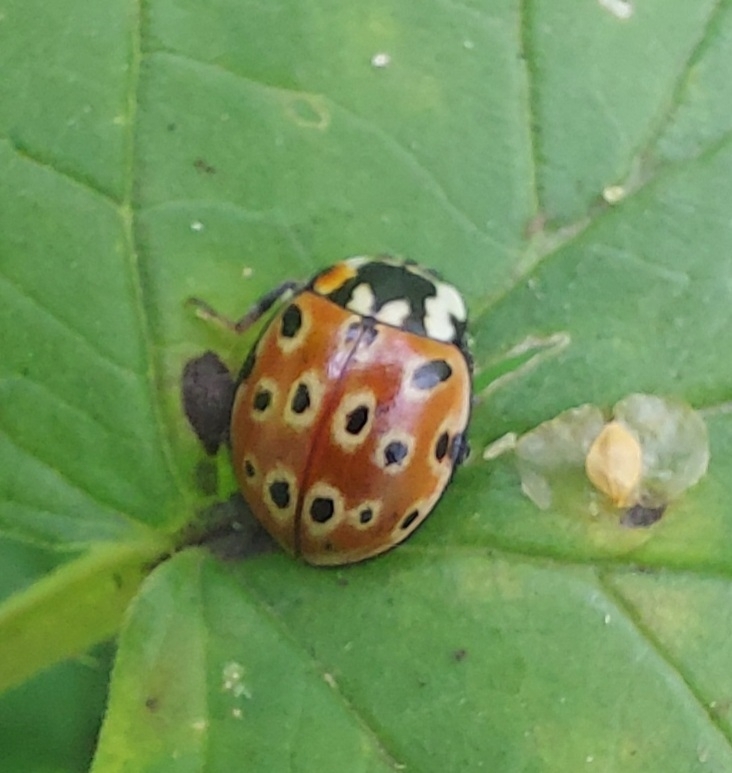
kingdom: Animalia
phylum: Arthropoda
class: Insecta
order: Coleoptera
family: Coccinellidae
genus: Anatis
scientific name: Anatis ocellata
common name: Eyed ladybird
